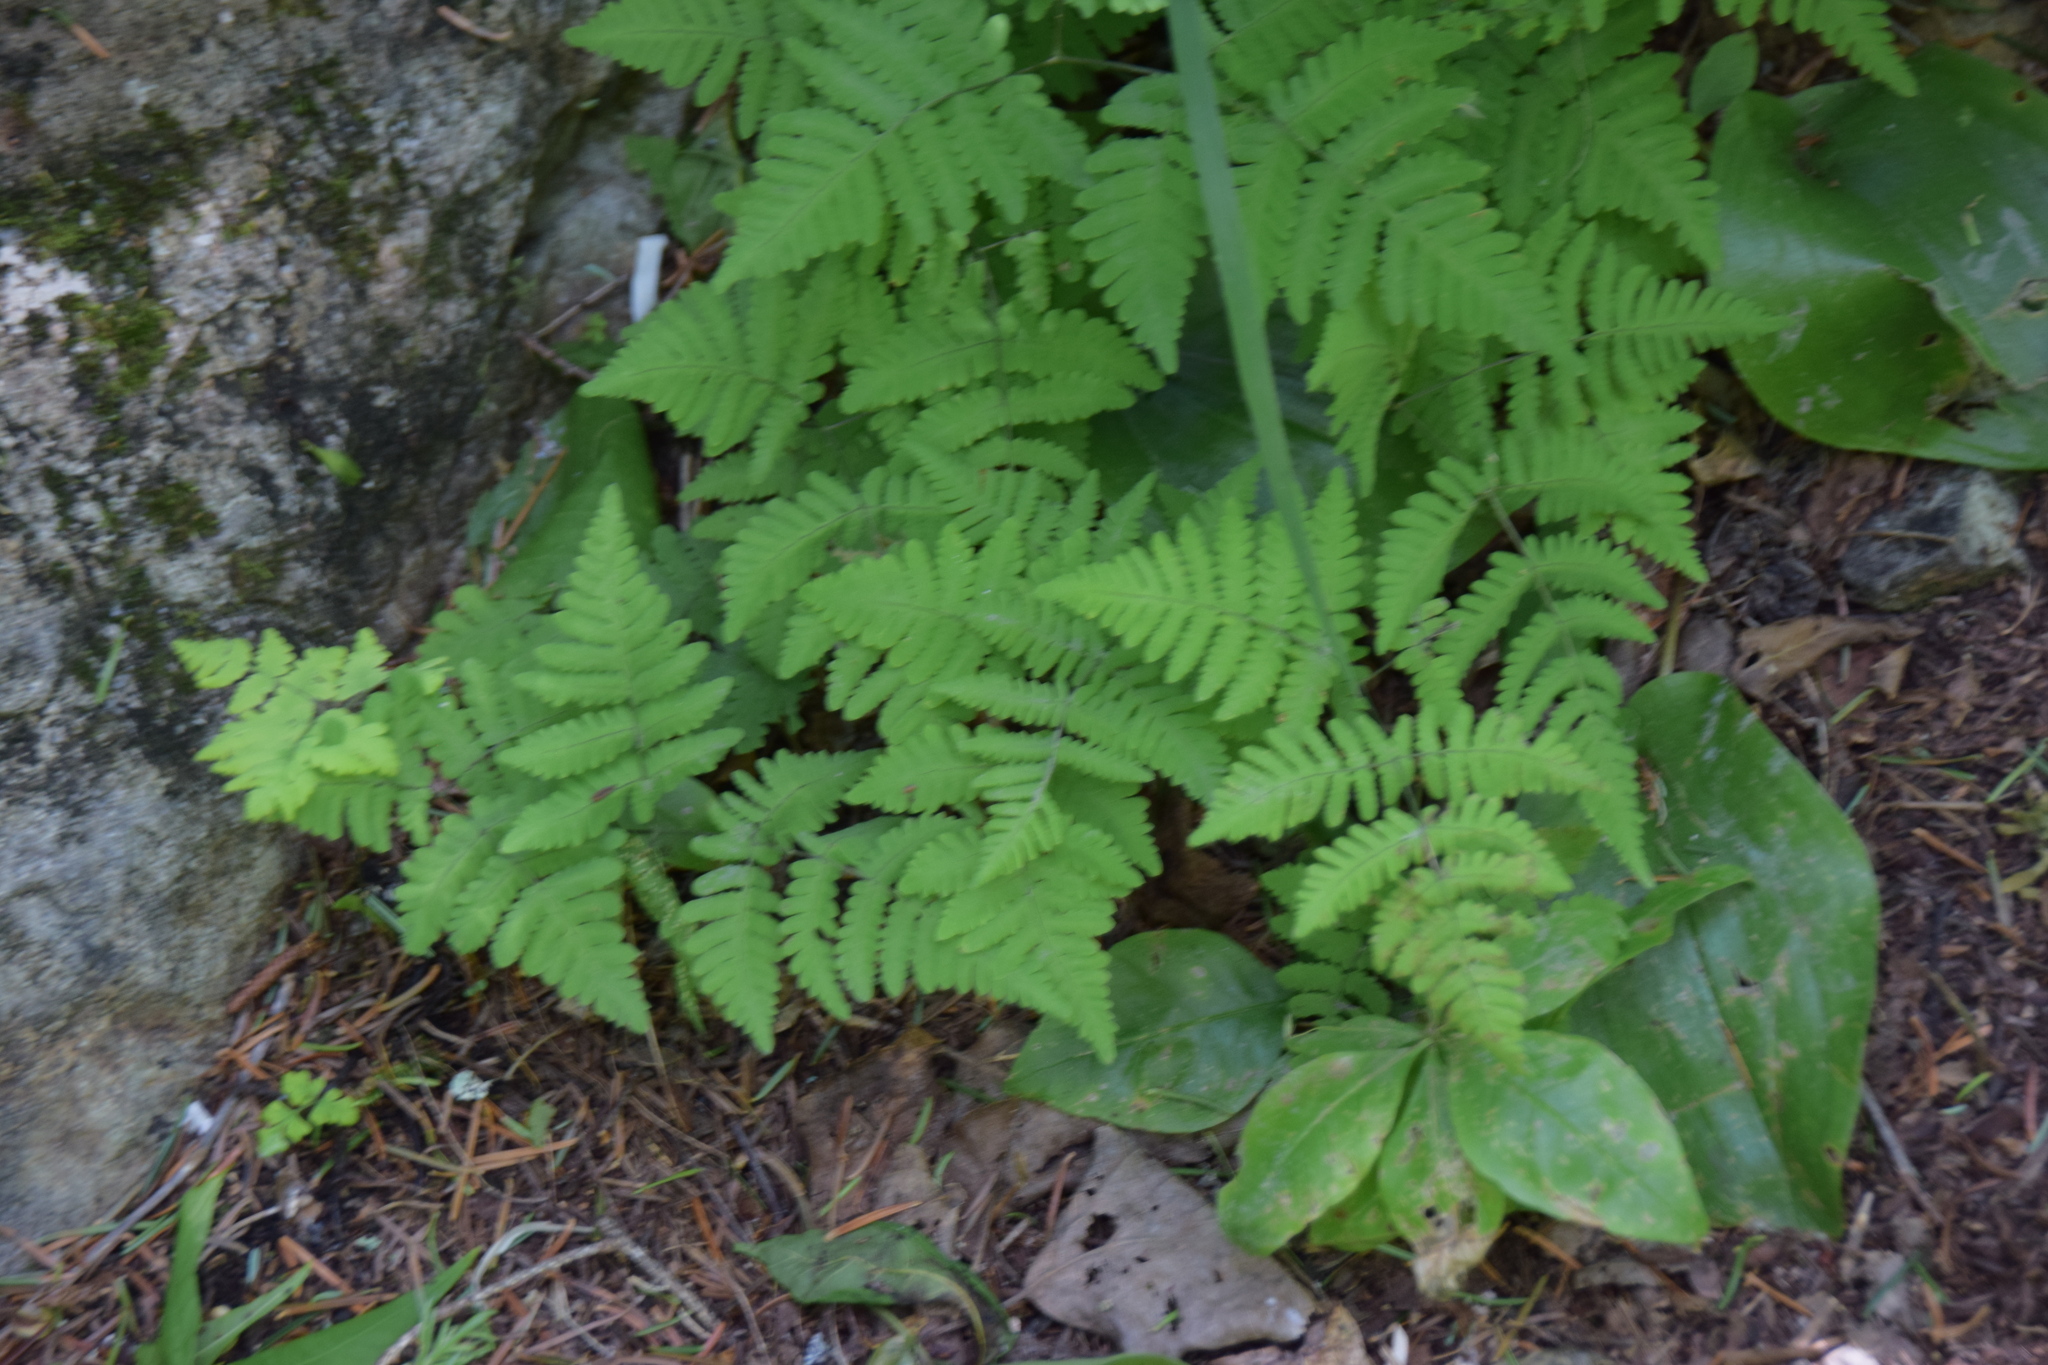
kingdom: Plantae
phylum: Tracheophyta
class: Polypodiopsida
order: Polypodiales
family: Cystopteridaceae
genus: Gymnocarpium
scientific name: Gymnocarpium dryopteris
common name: Oak fern
